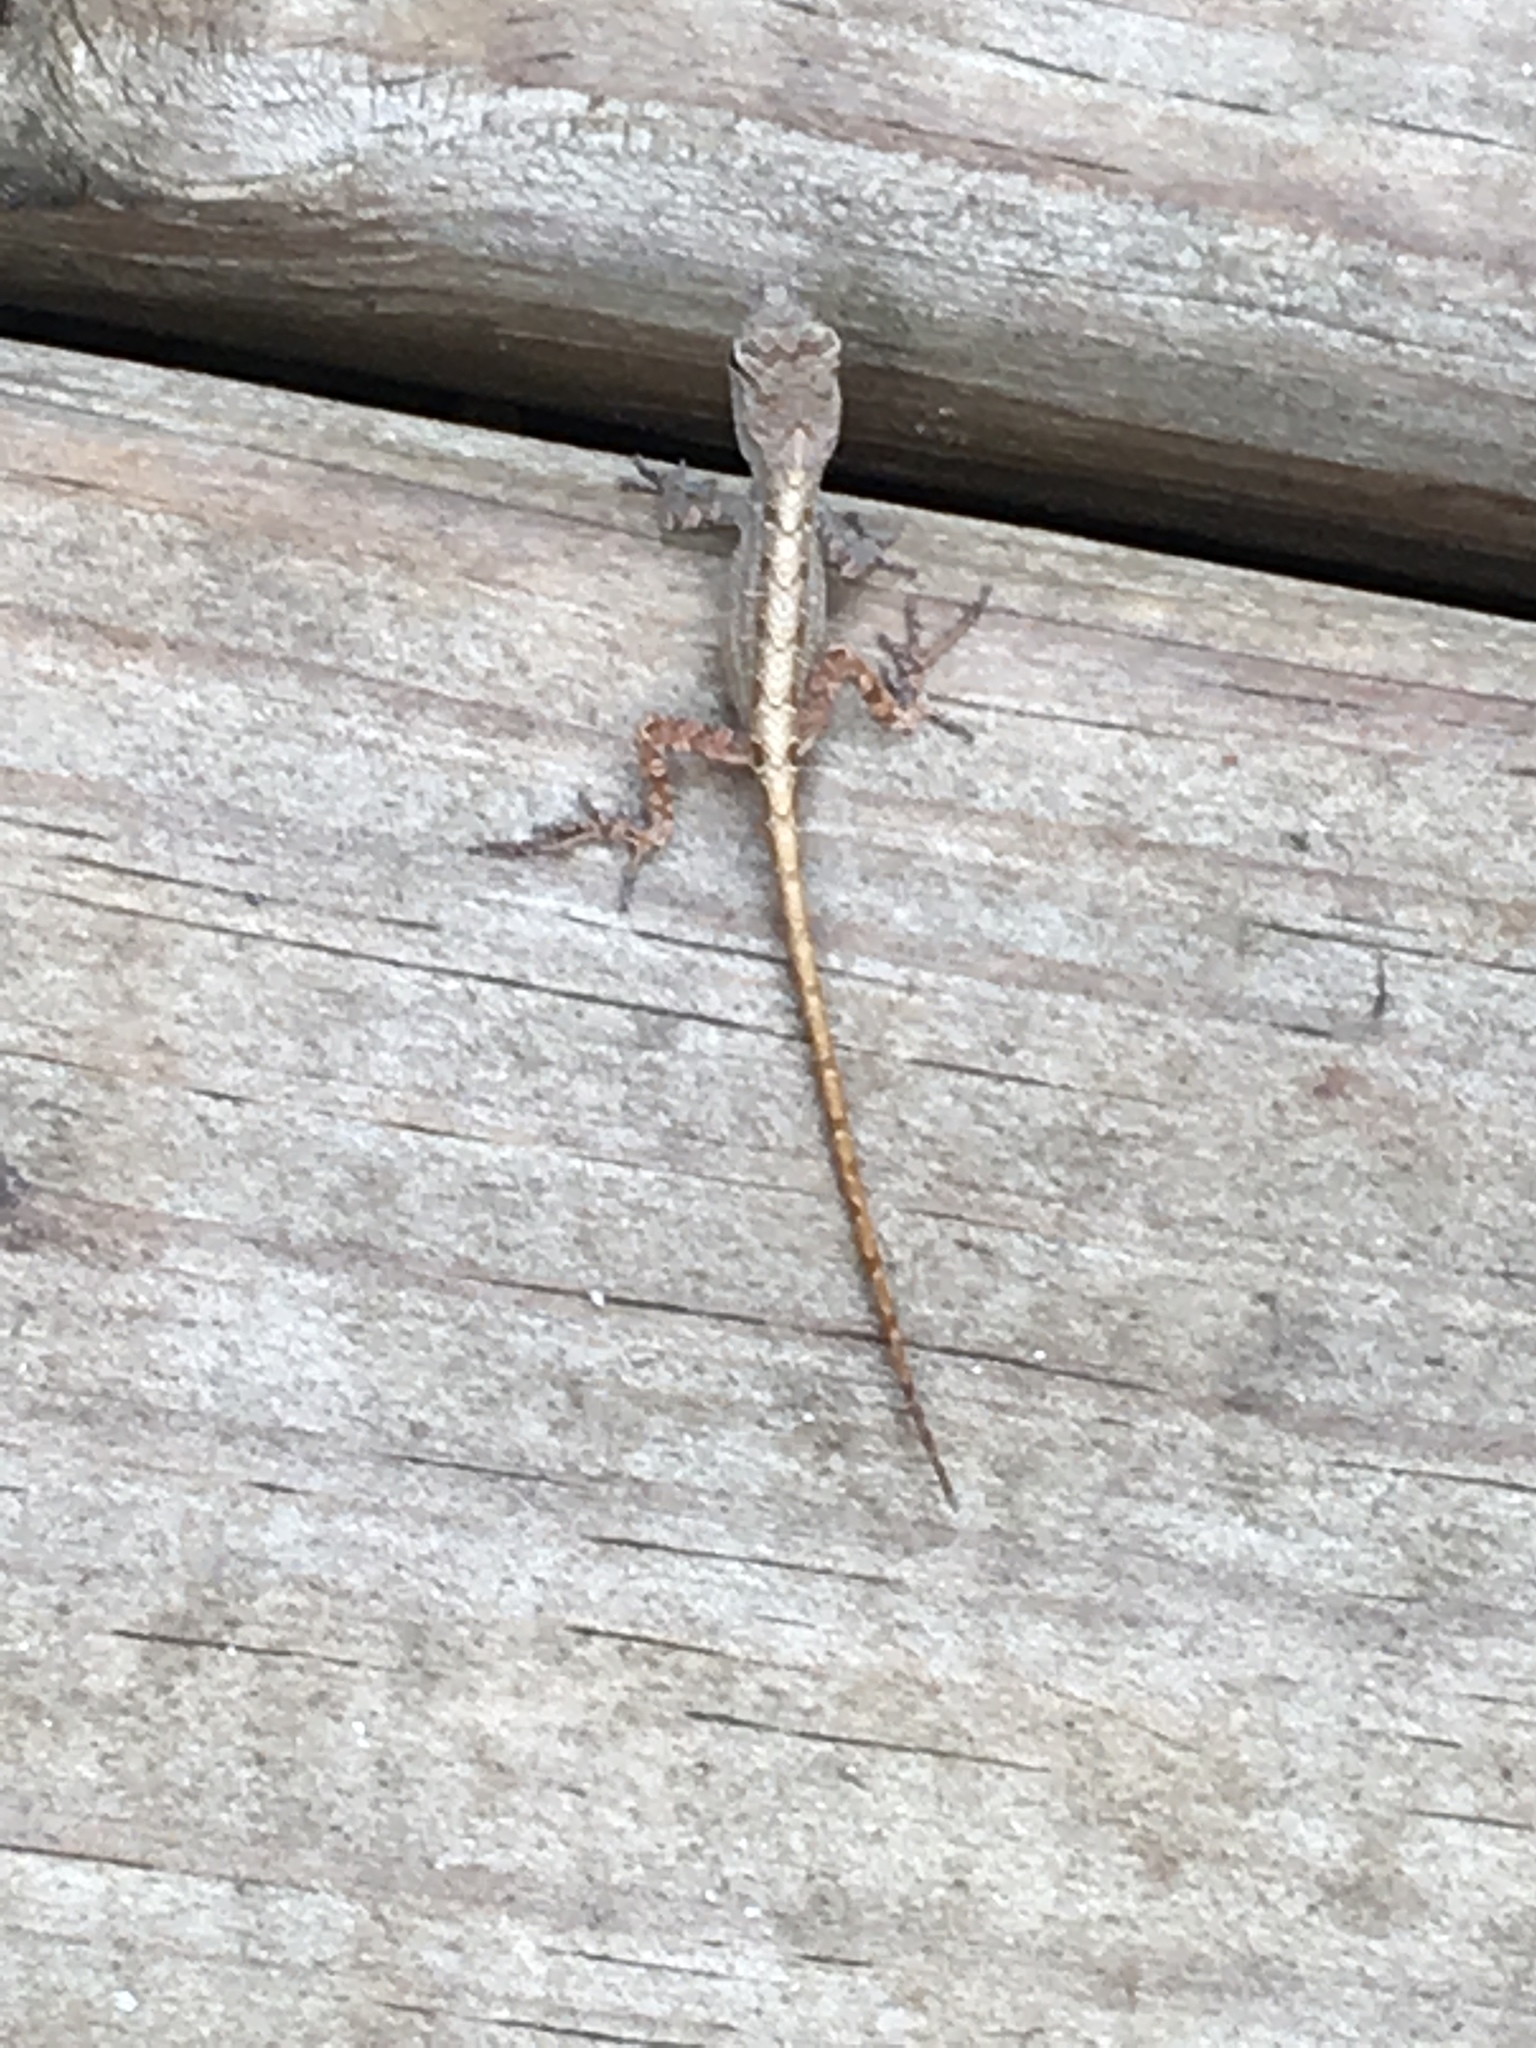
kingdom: Animalia
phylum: Chordata
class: Squamata
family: Dactyloidae
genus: Anolis
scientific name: Anolis sagrei
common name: Brown anole
